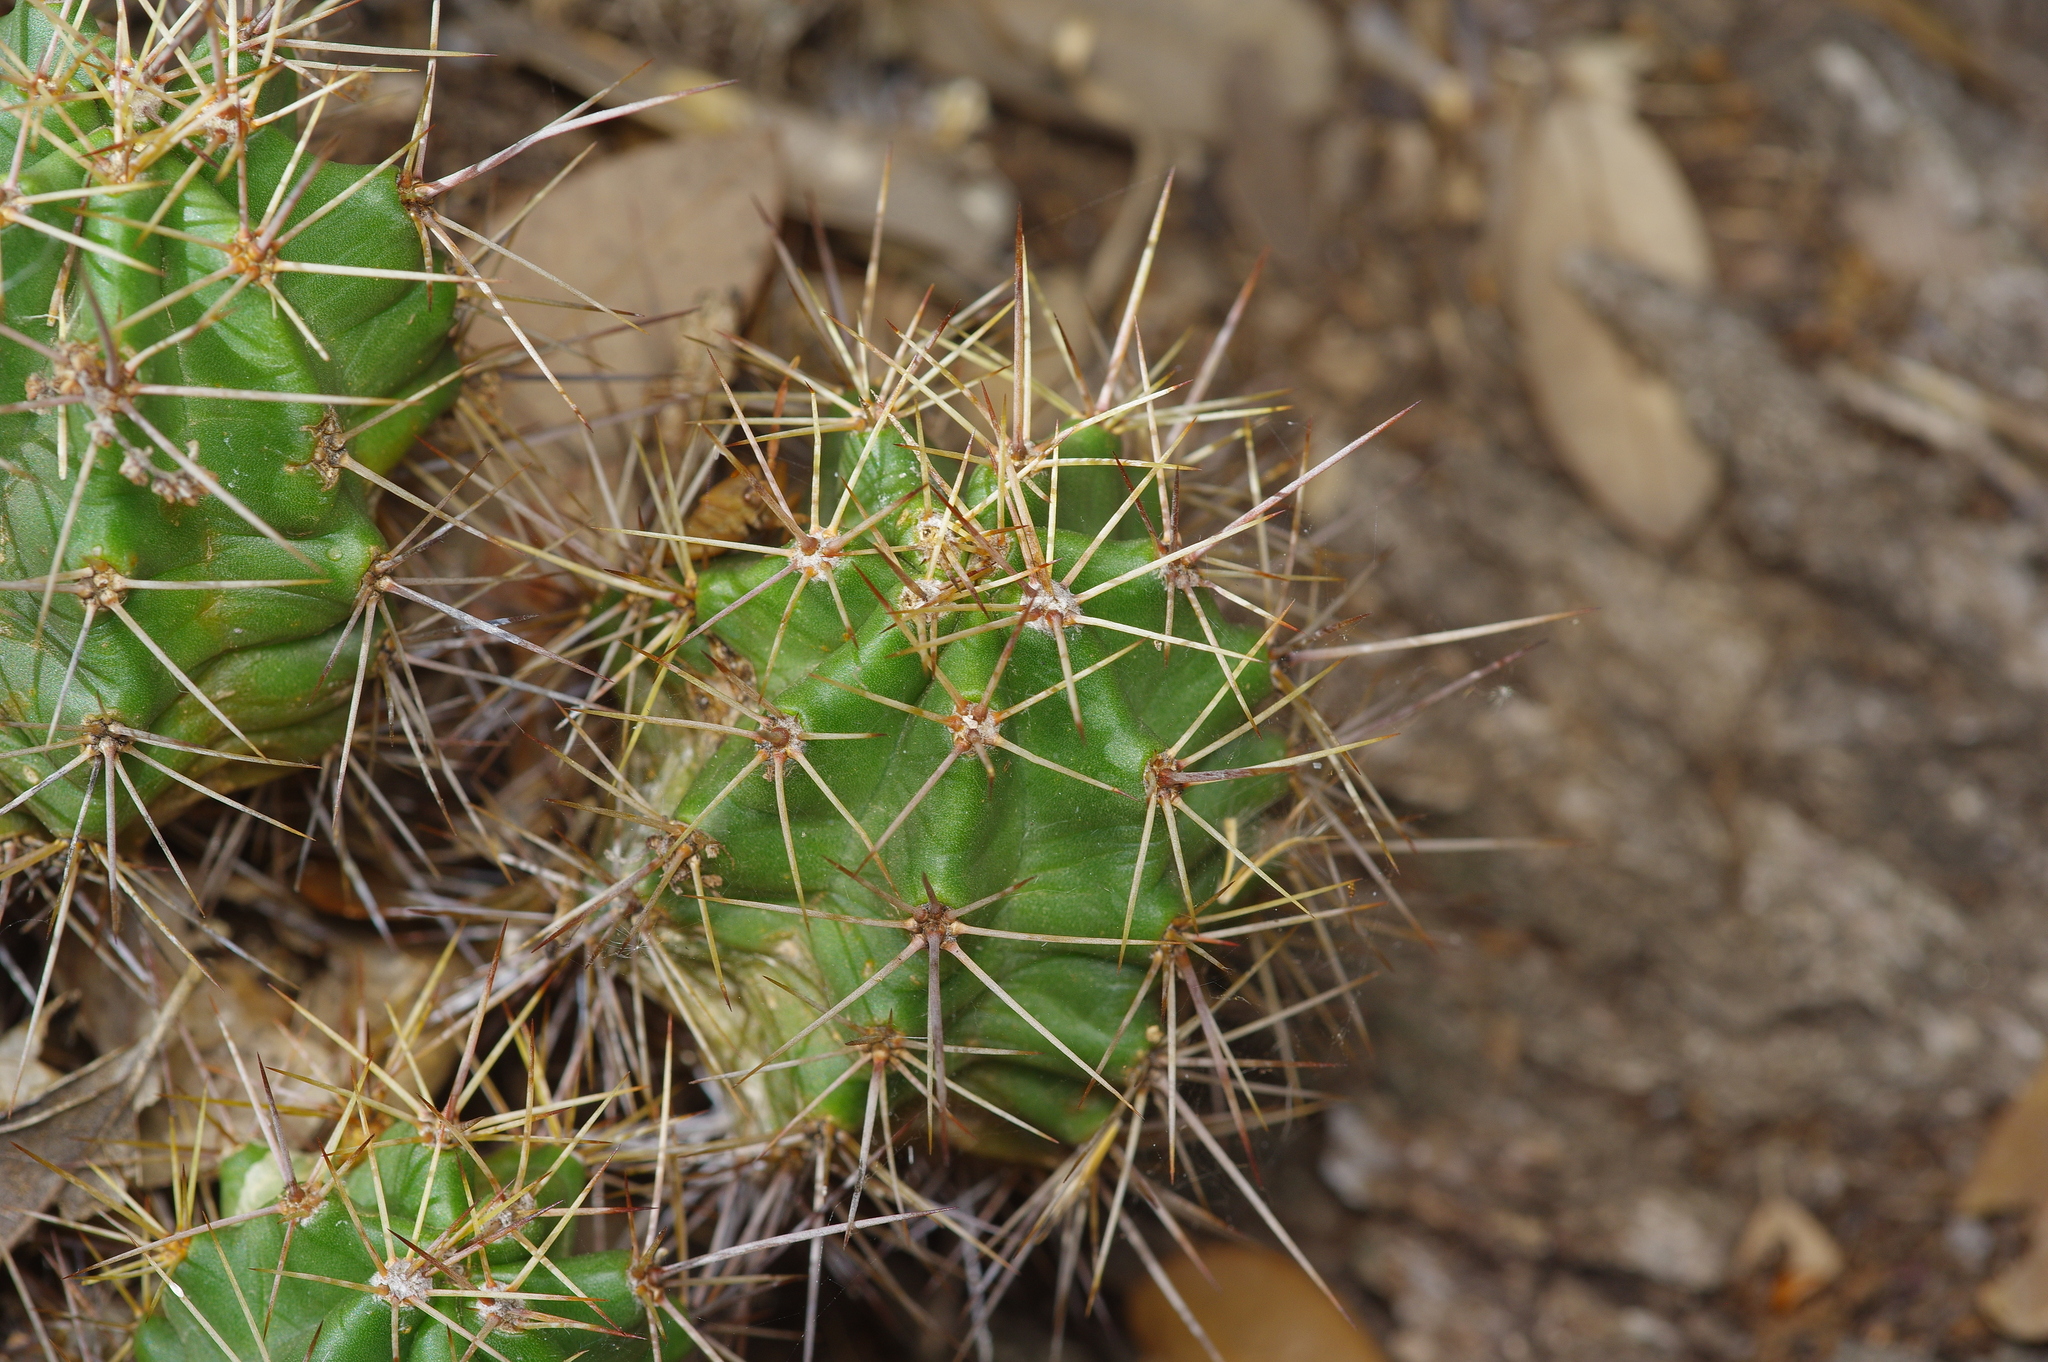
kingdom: Plantae
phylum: Tracheophyta
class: Magnoliopsida
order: Caryophyllales
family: Cactaceae
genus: Echinocereus
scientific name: Echinocereus coccineus
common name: Scarlet hedgehog cactus
